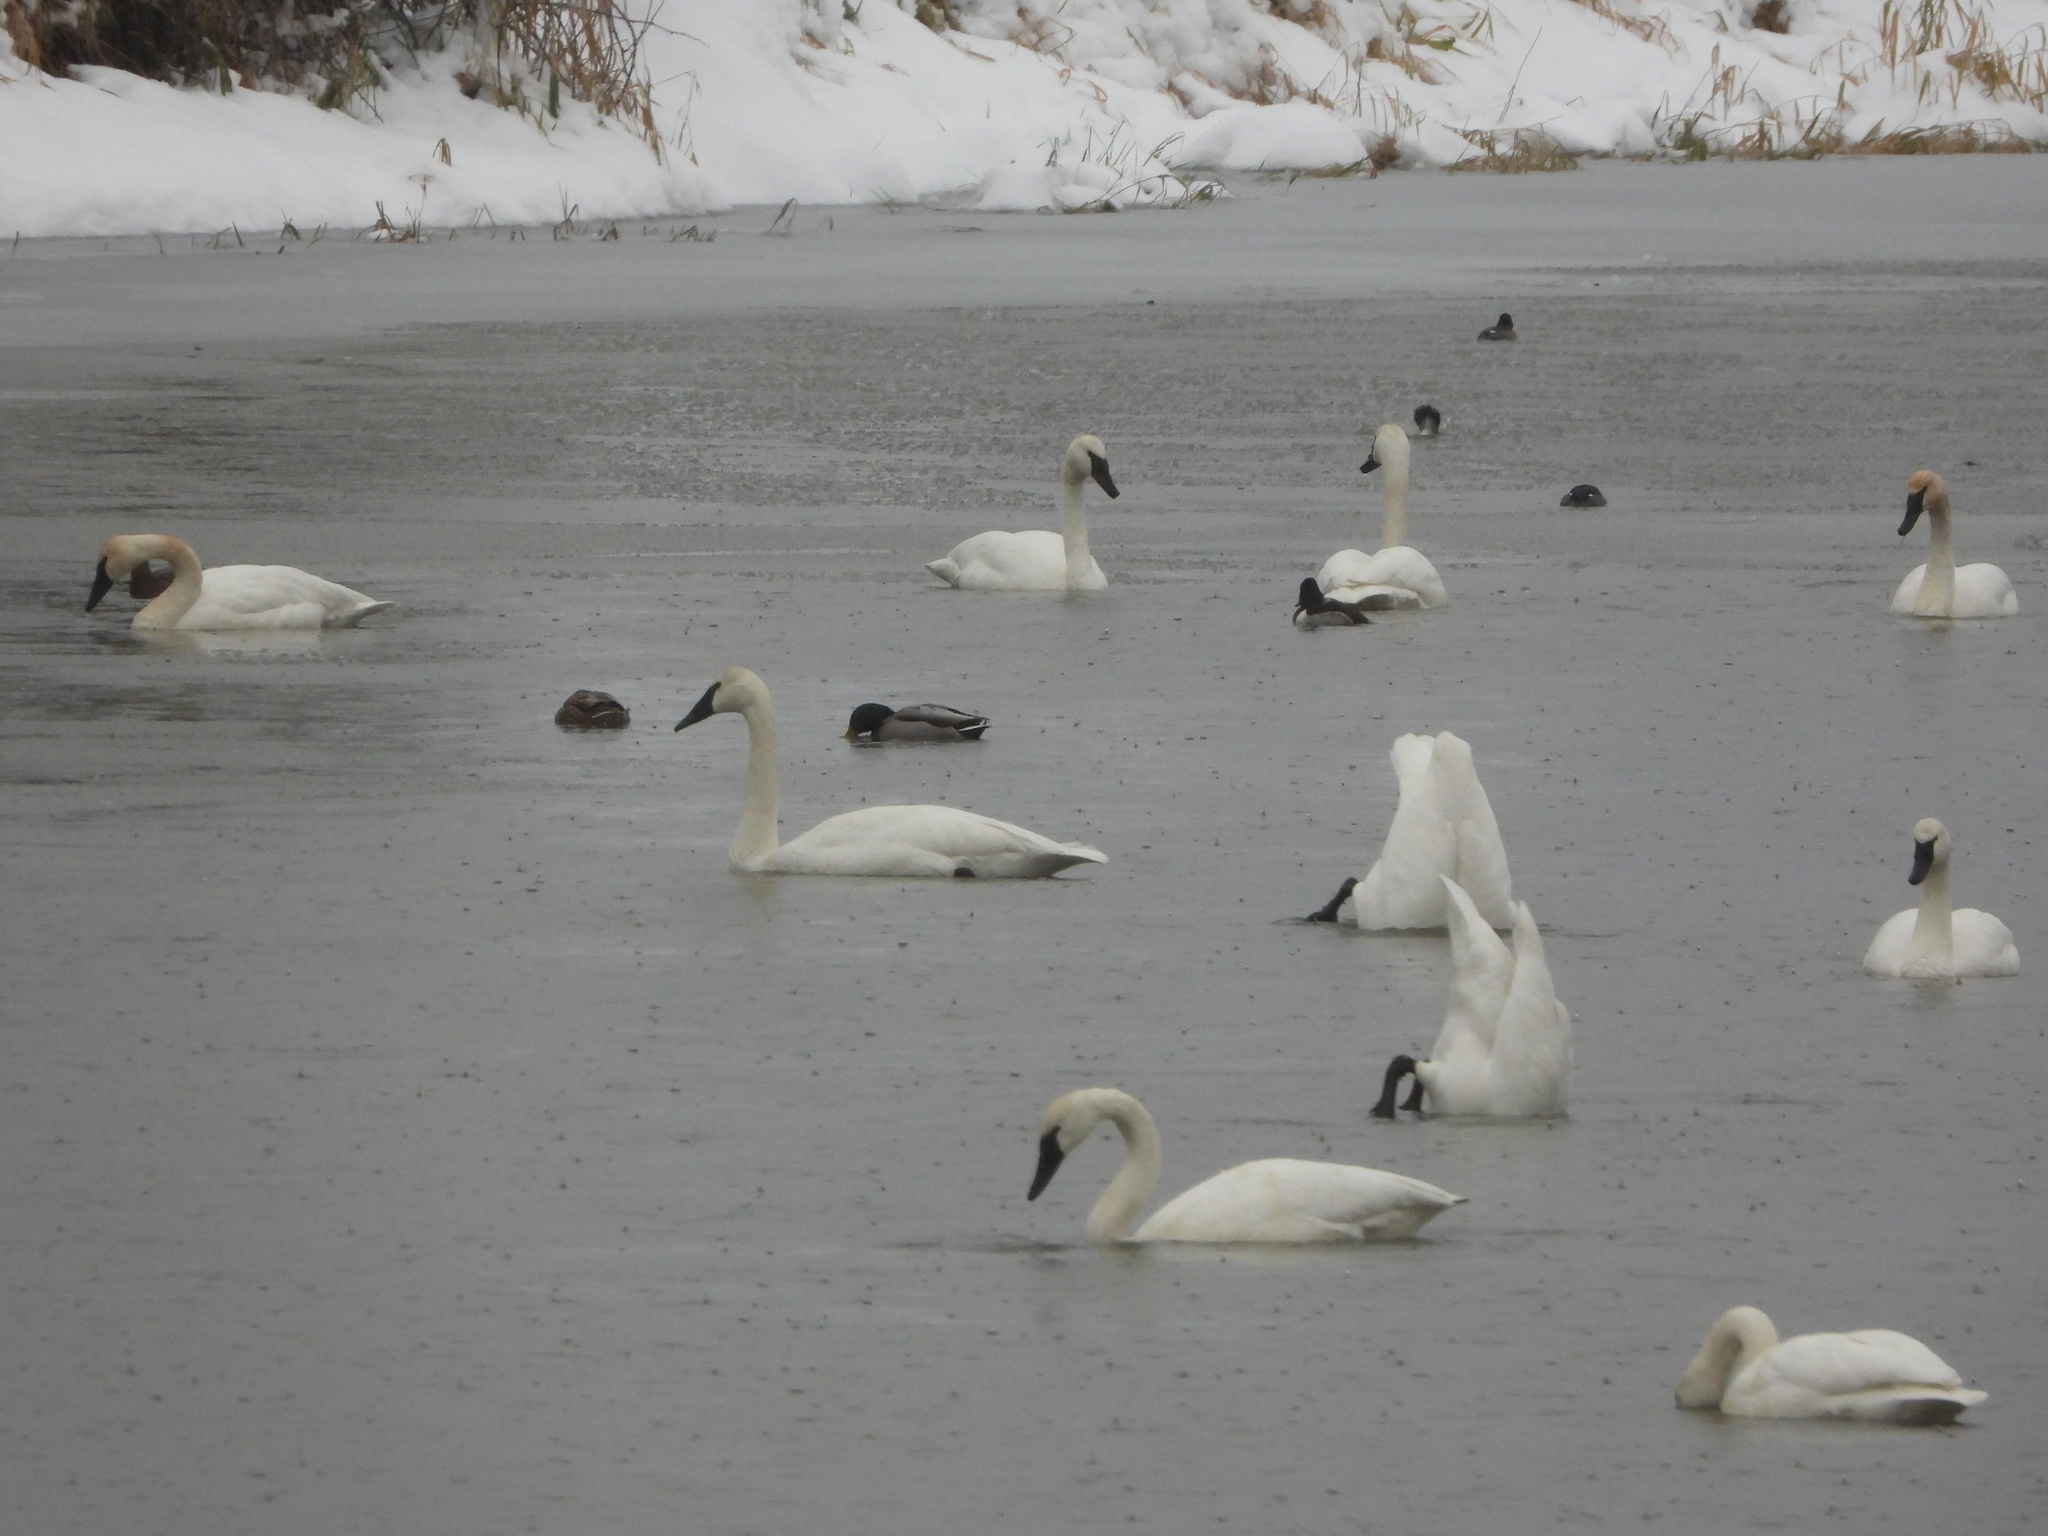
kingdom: Animalia
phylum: Chordata
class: Aves
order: Anseriformes
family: Anatidae
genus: Cygnus
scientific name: Cygnus buccinator
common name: Trumpeter swan
